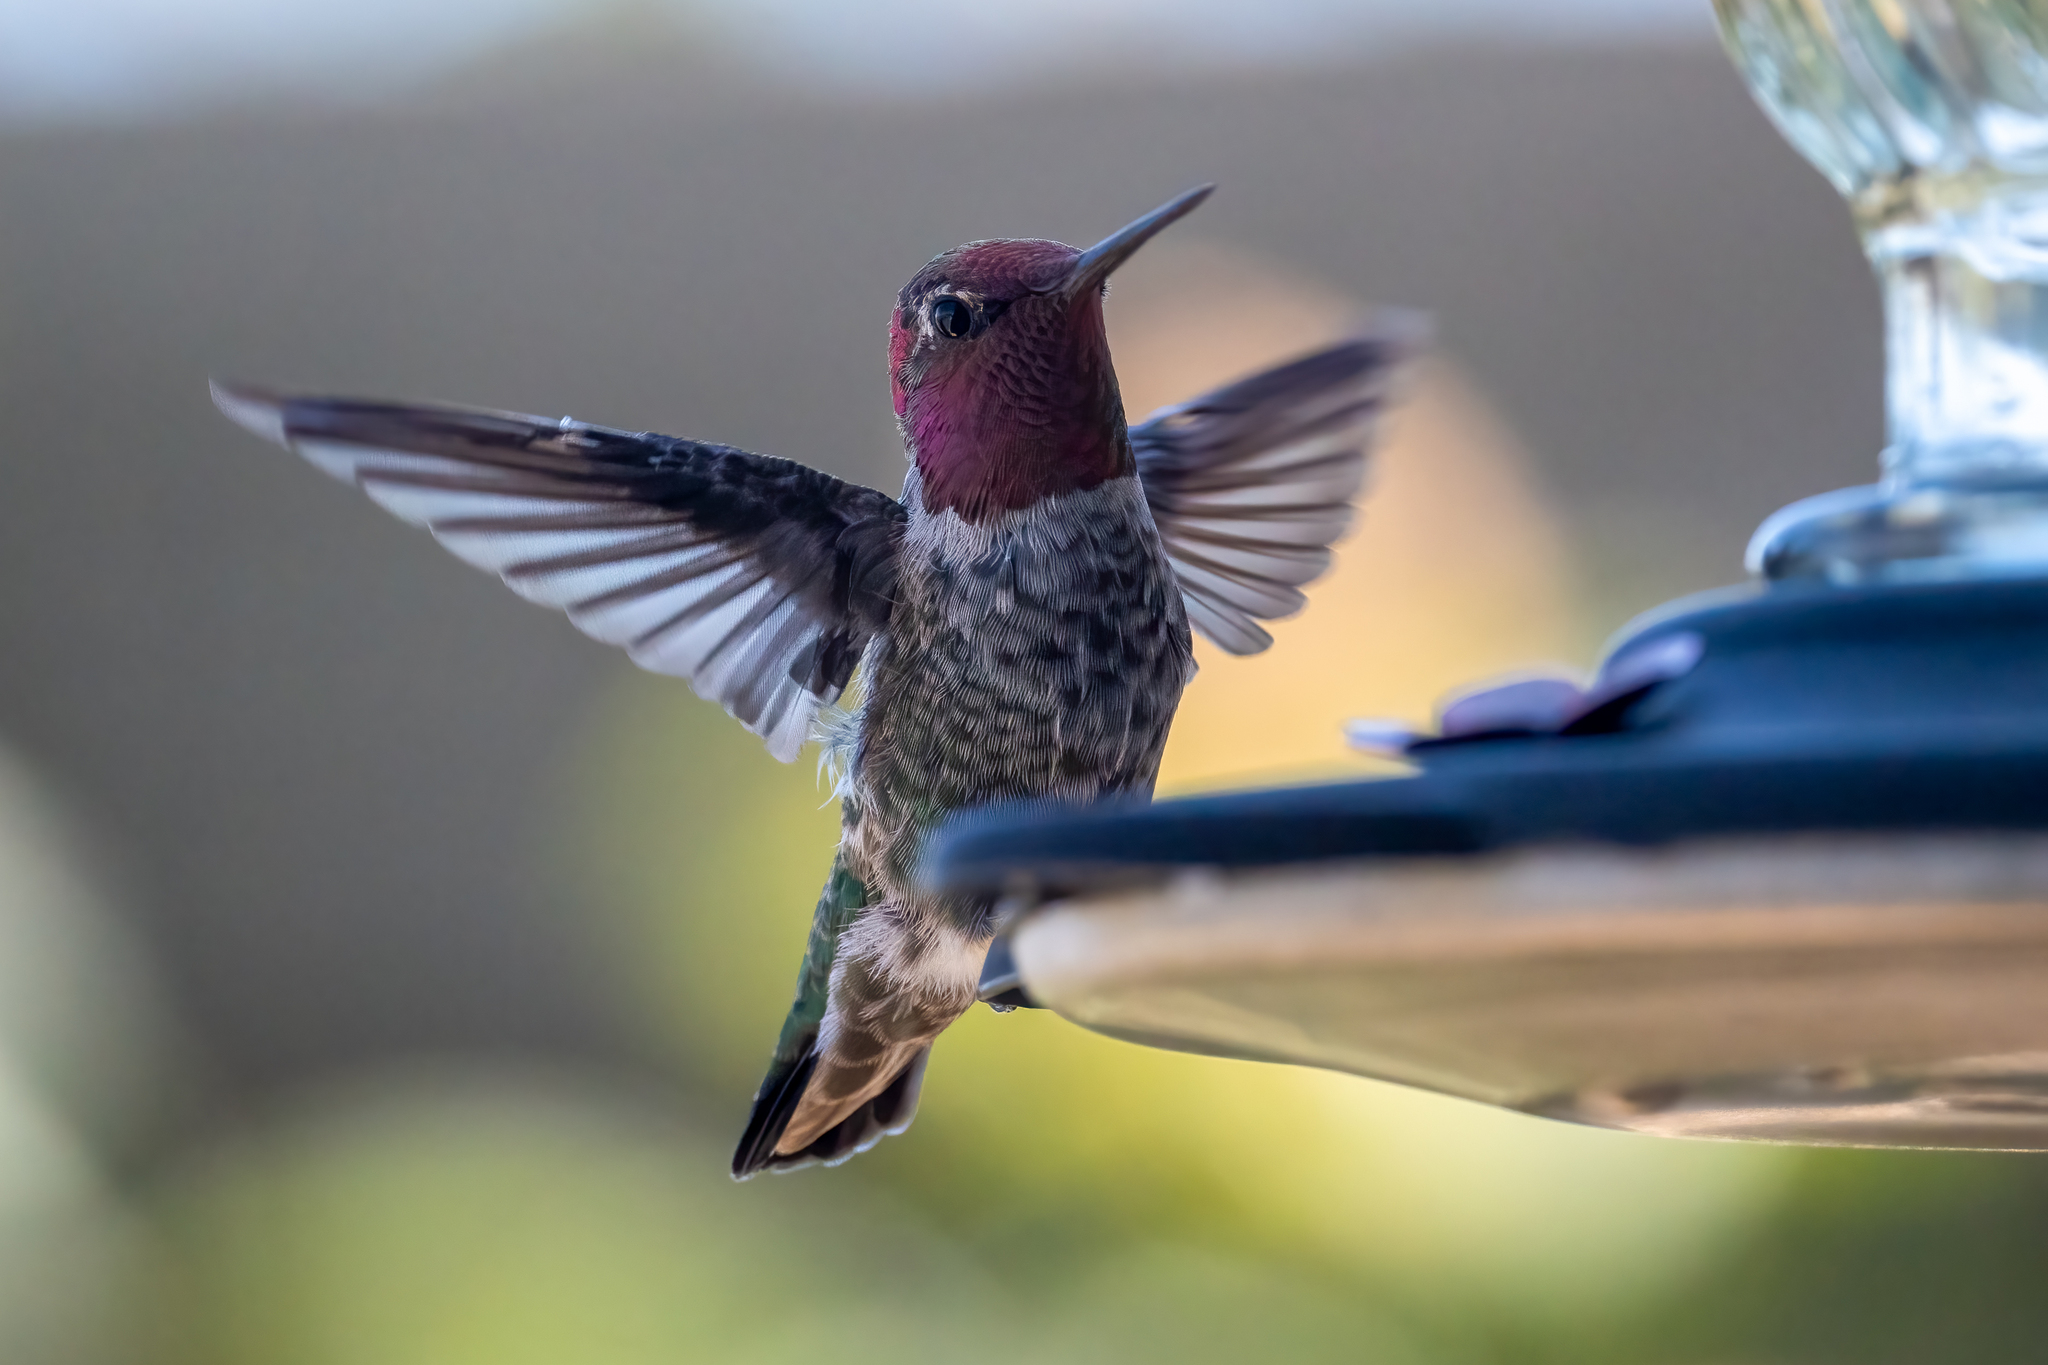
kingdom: Animalia
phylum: Chordata
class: Aves
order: Apodiformes
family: Trochilidae
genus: Calypte
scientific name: Calypte anna
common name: Anna's hummingbird
